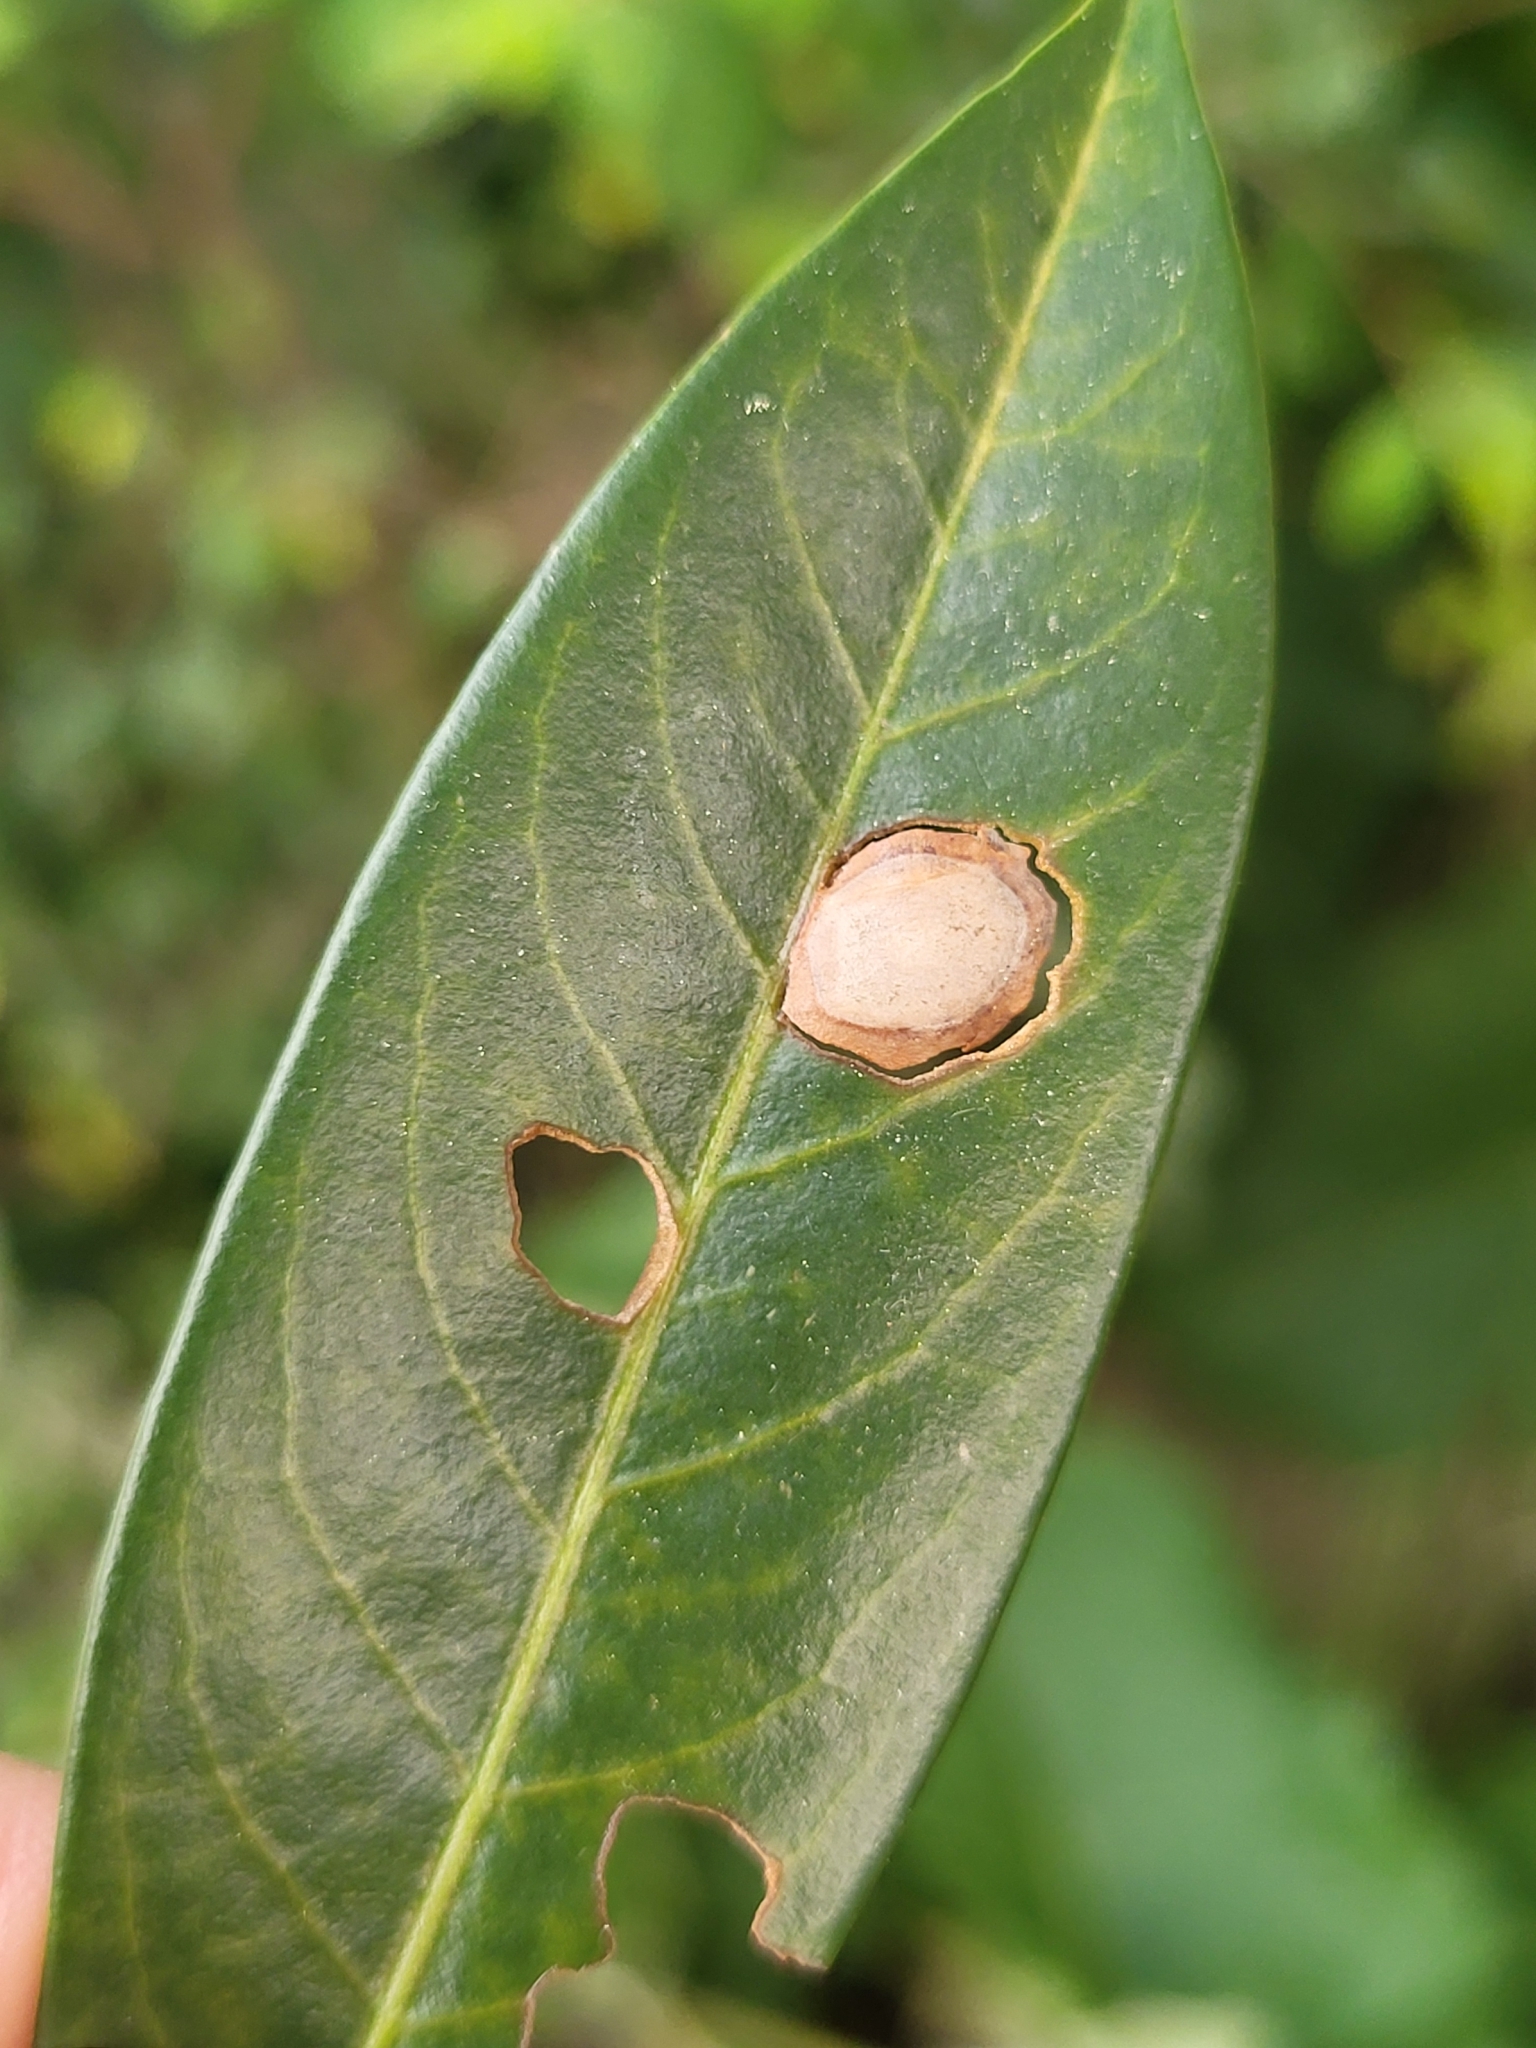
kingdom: Fungi
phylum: Ascomycota
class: Dothideomycetes
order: Mycosphaerellales
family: Mycosphaerellaceae
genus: Stigmina
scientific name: Stigmina carpophila
